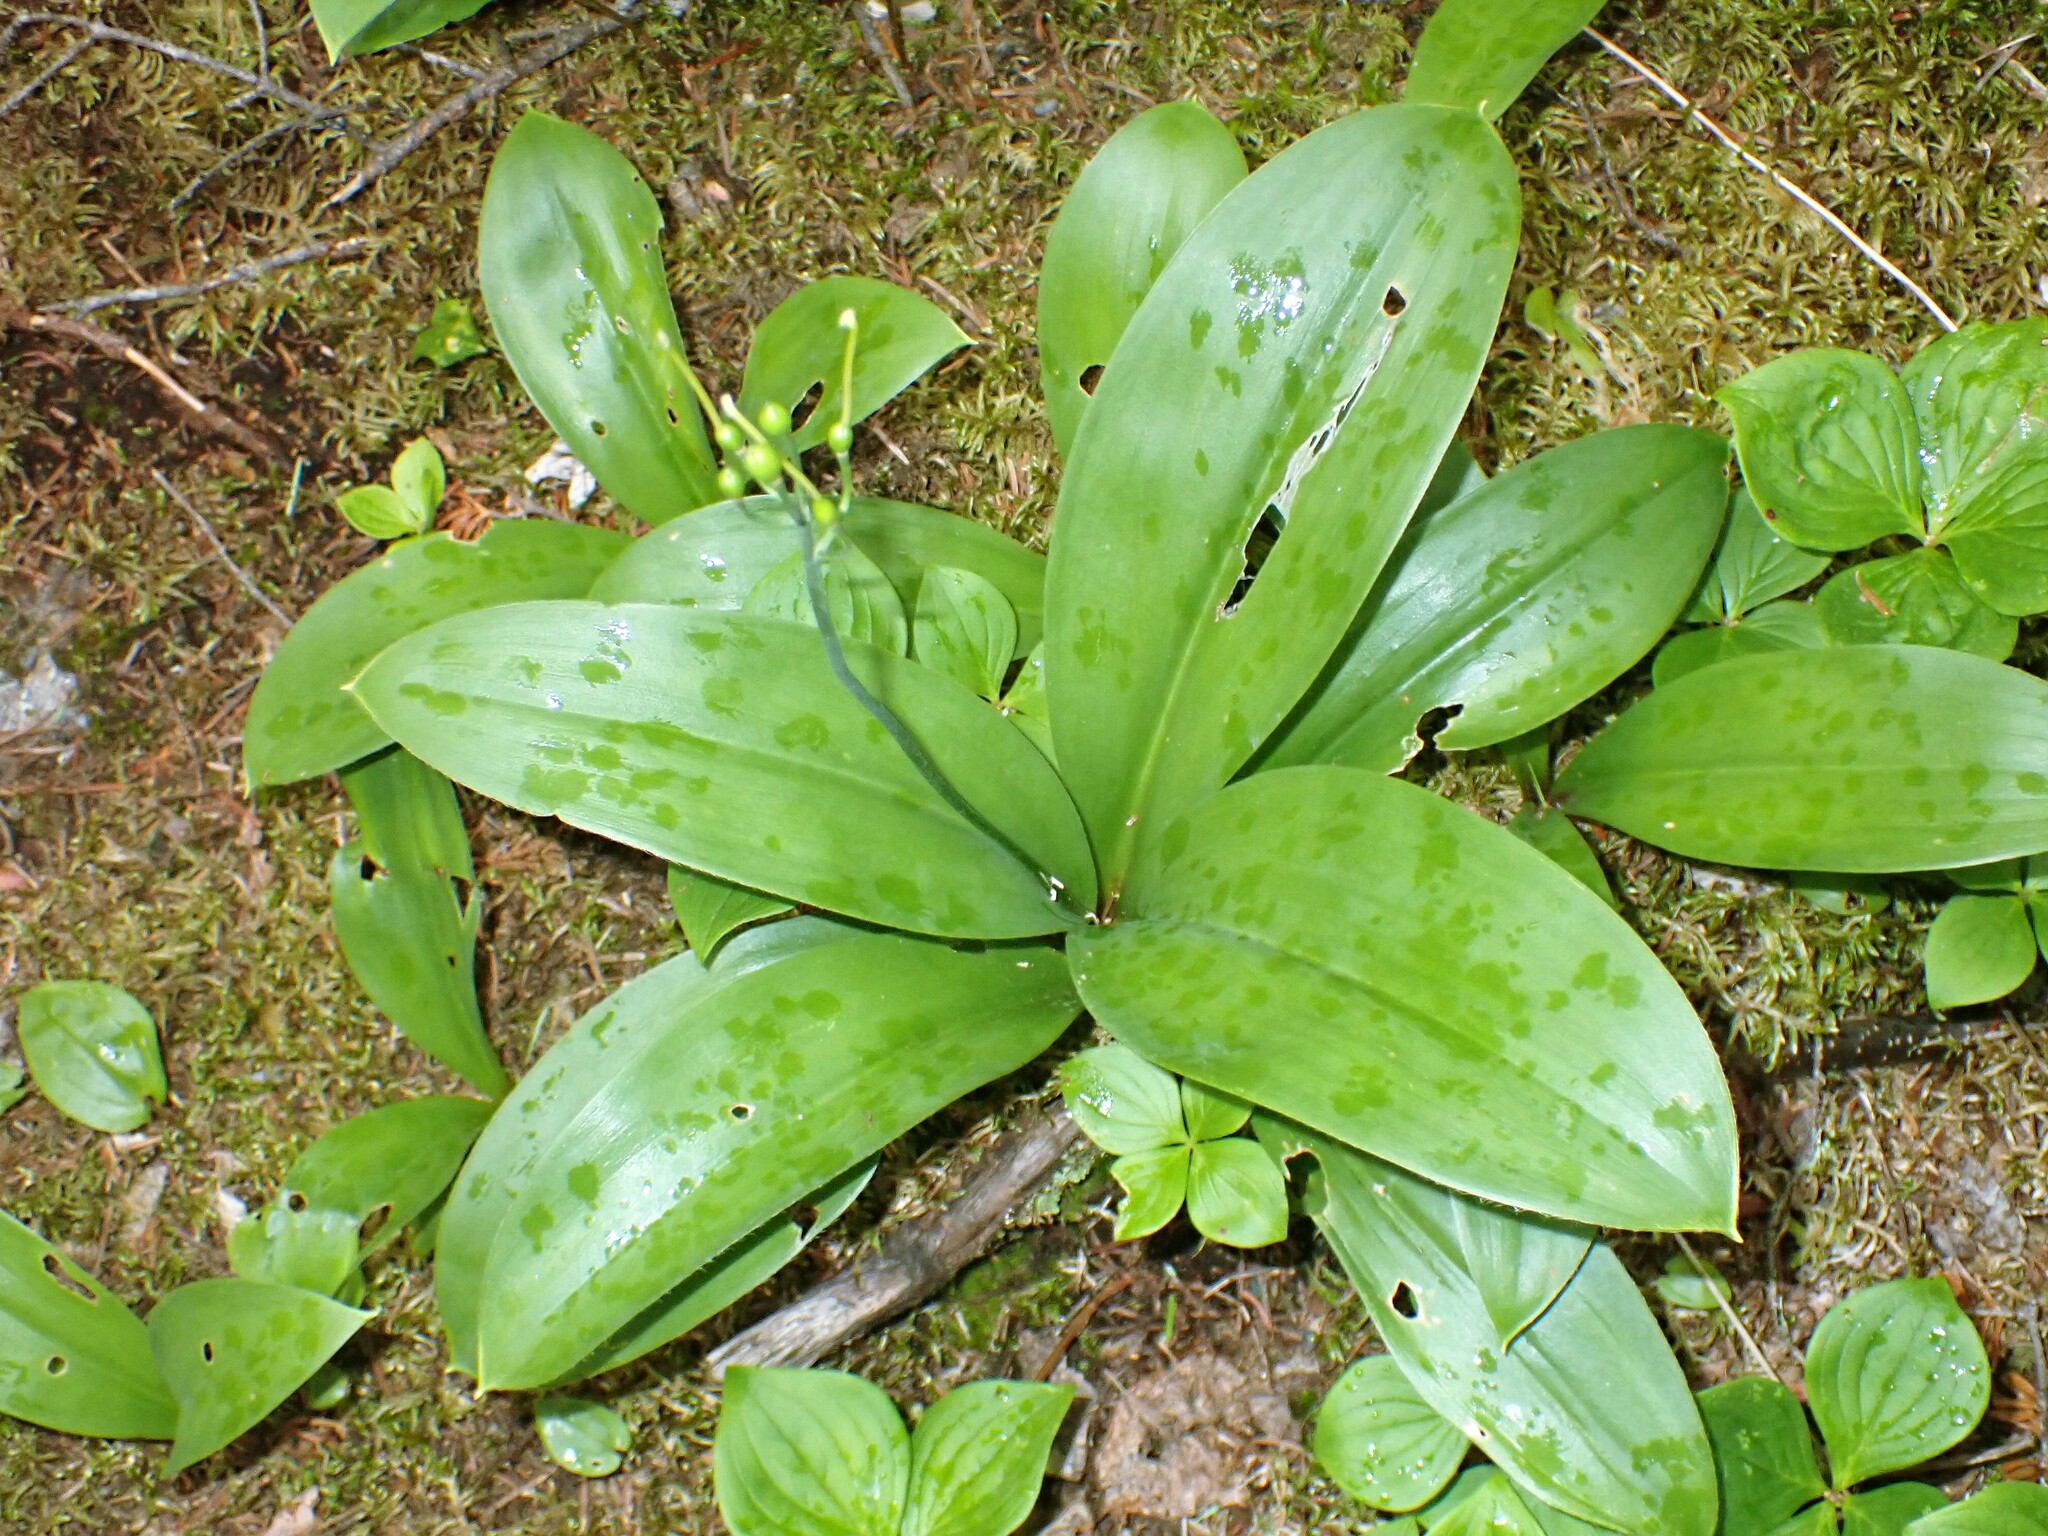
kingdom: Plantae
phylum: Tracheophyta
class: Liliopsida
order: Liliales
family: Liliaceae
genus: Clintonia
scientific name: Clintonia borealis
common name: Yellow clintonia
